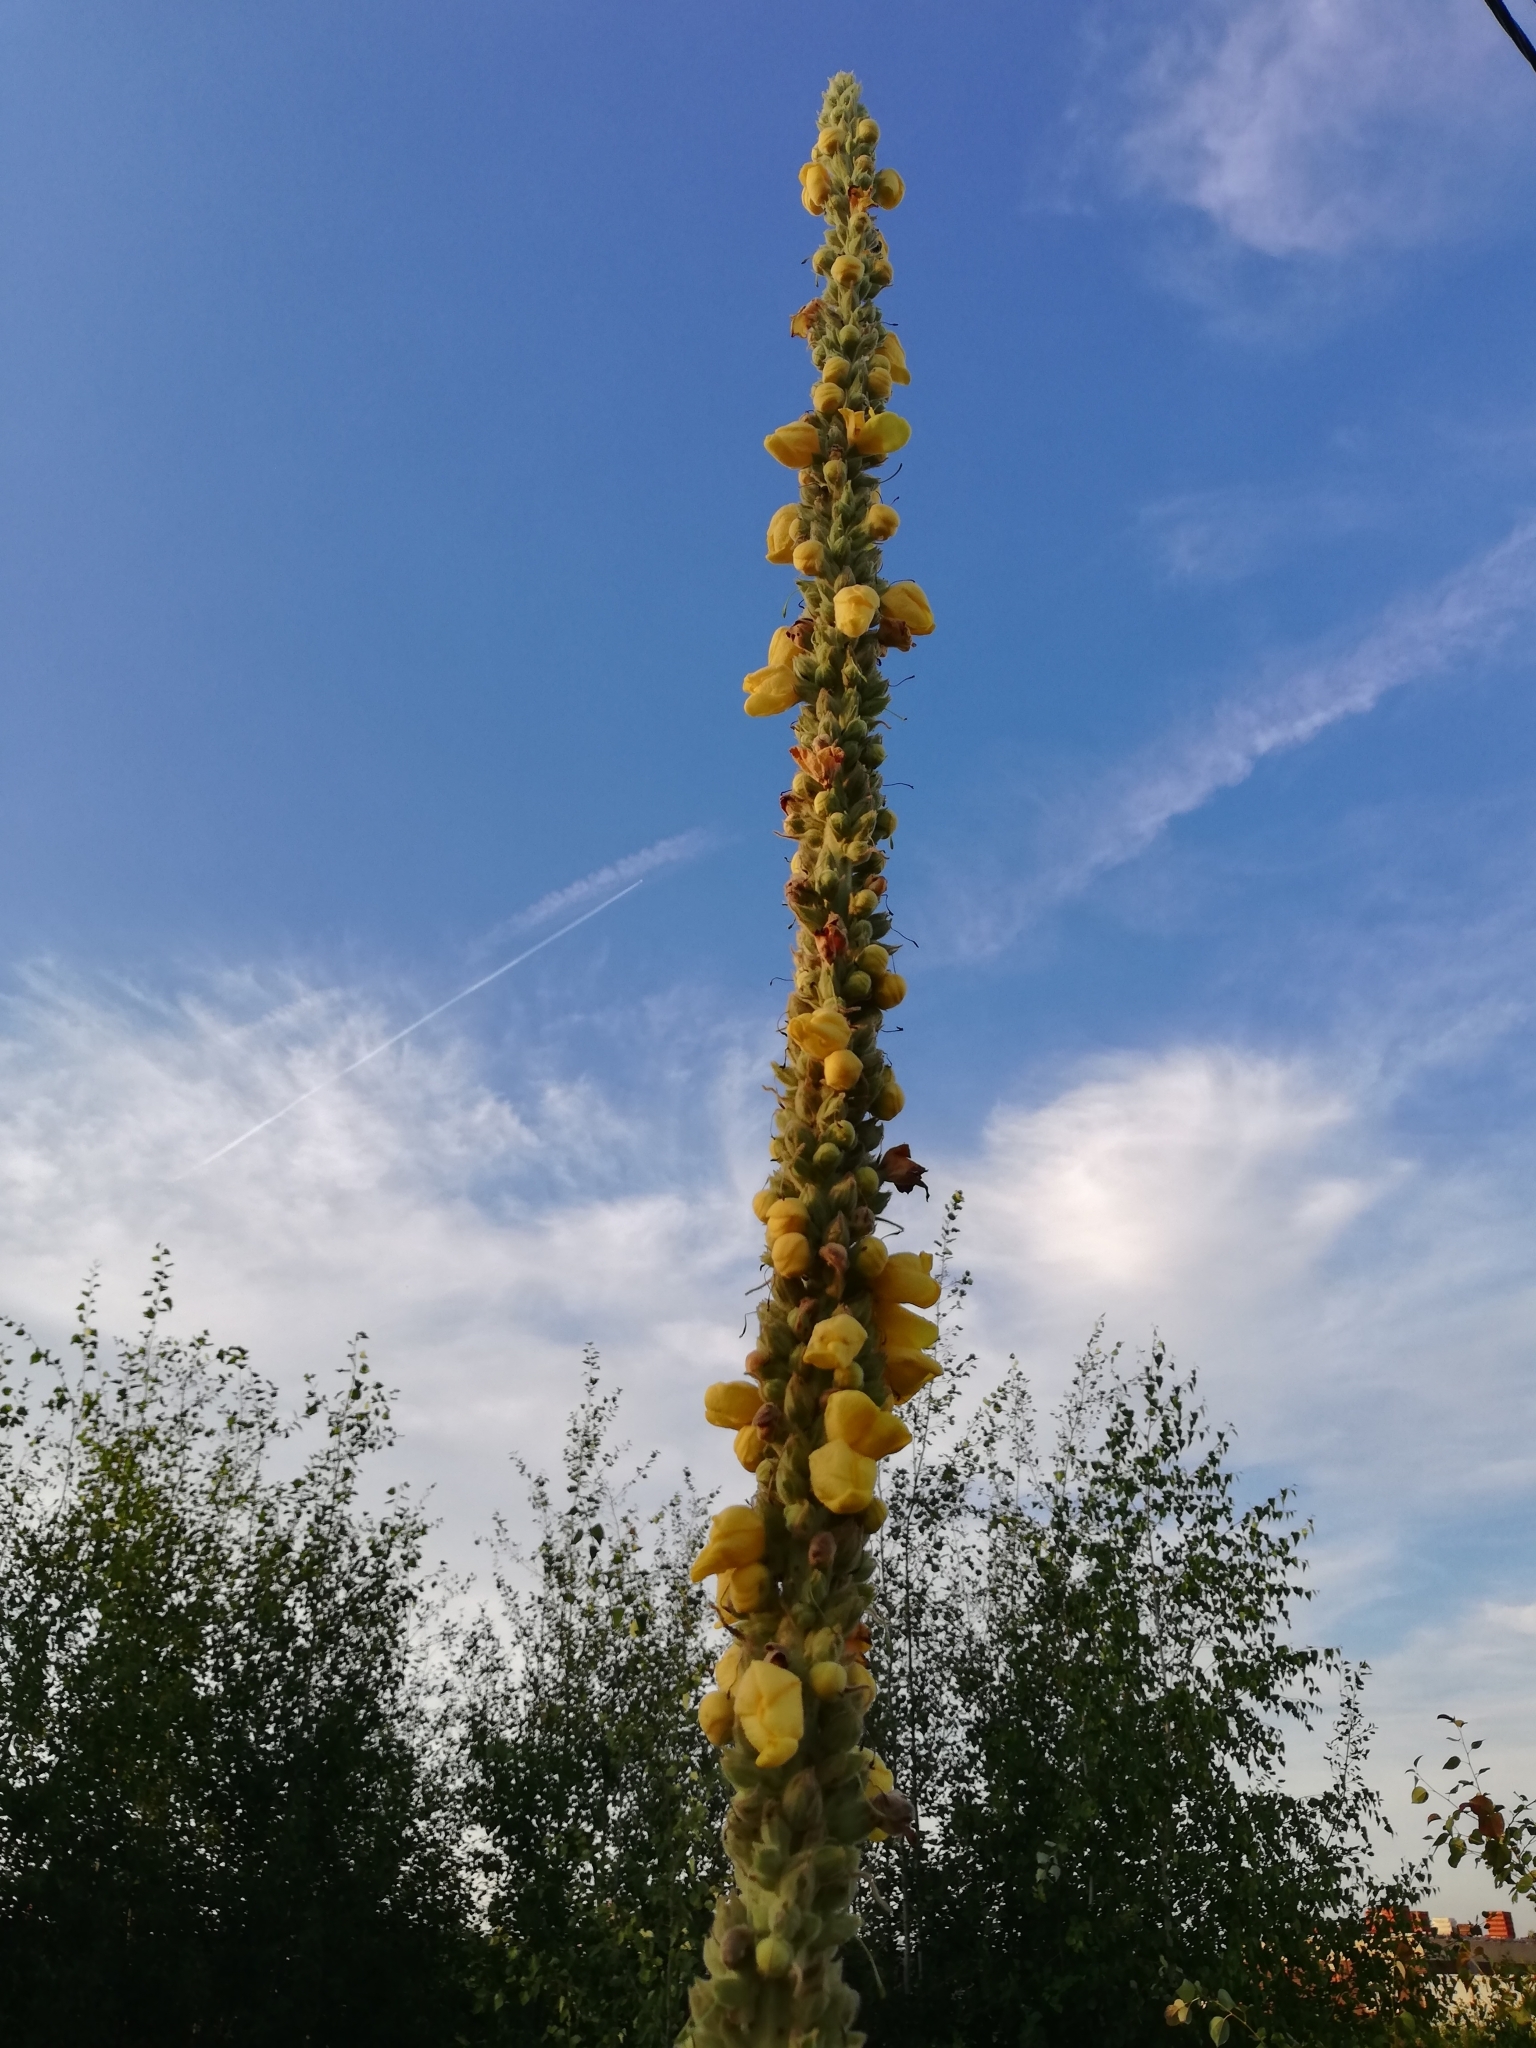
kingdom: Plantae
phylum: Tracheophyta
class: Magnoliopsida
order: Lamiales
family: Scrophulariaceae
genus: Verbascum
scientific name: Verbascum thapsus
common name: Common mullein
